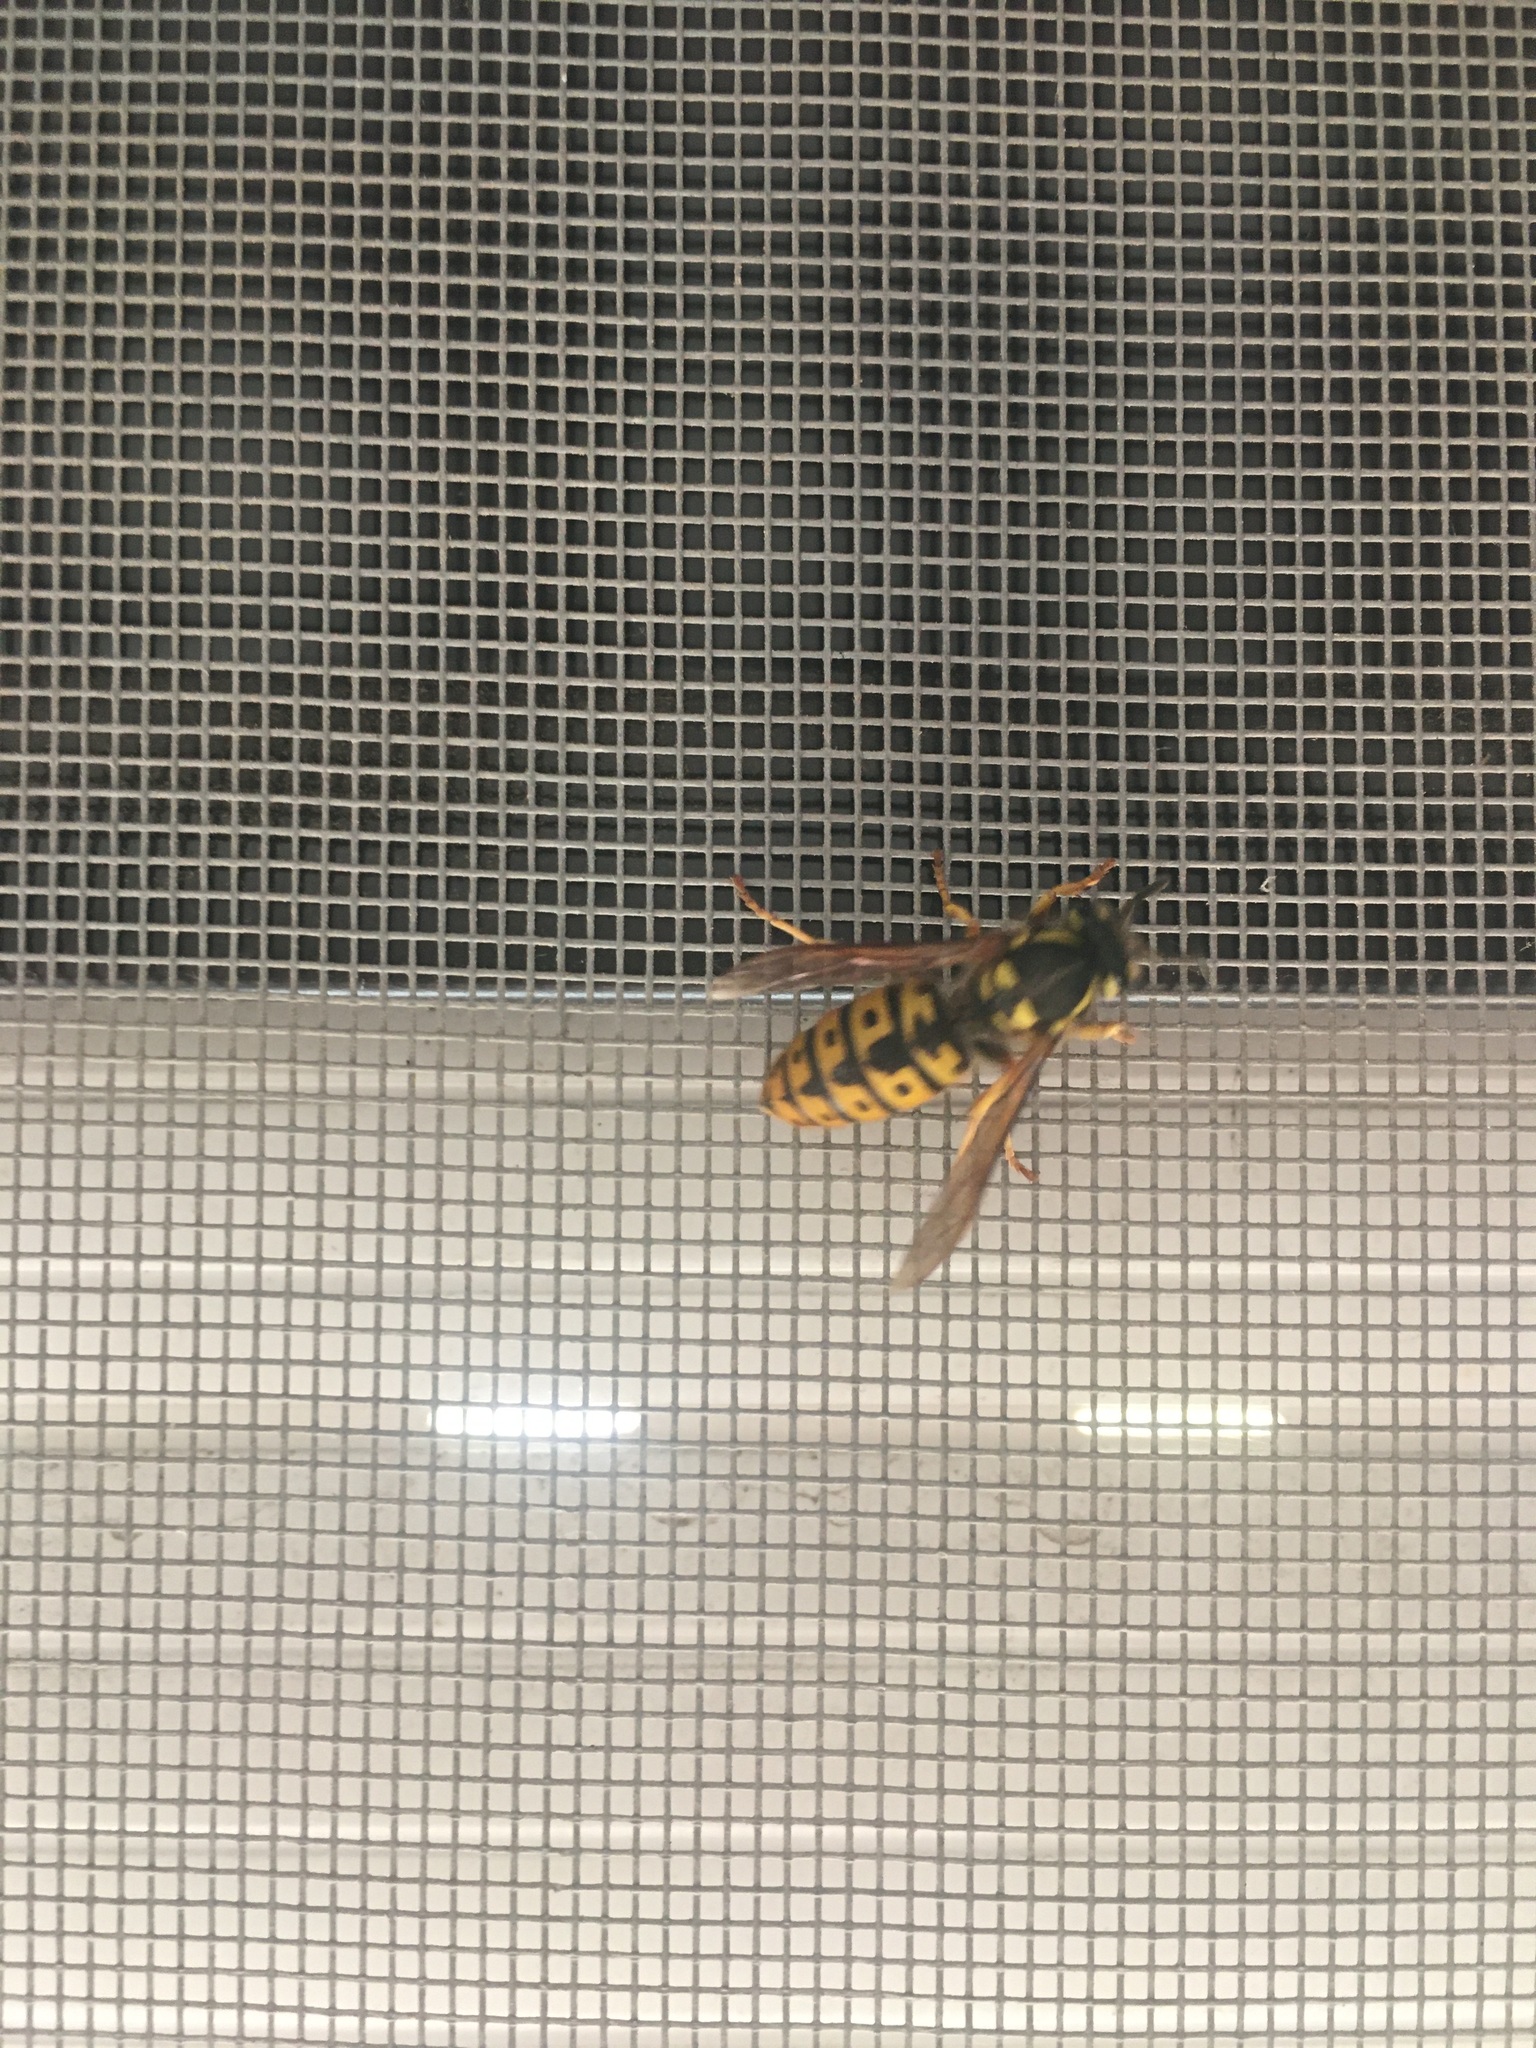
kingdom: Animalia
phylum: Arthropoda
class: Insecta
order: Hymenoptera
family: Vespidae
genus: Vespula
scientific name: Vespula germanica
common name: German wasp
